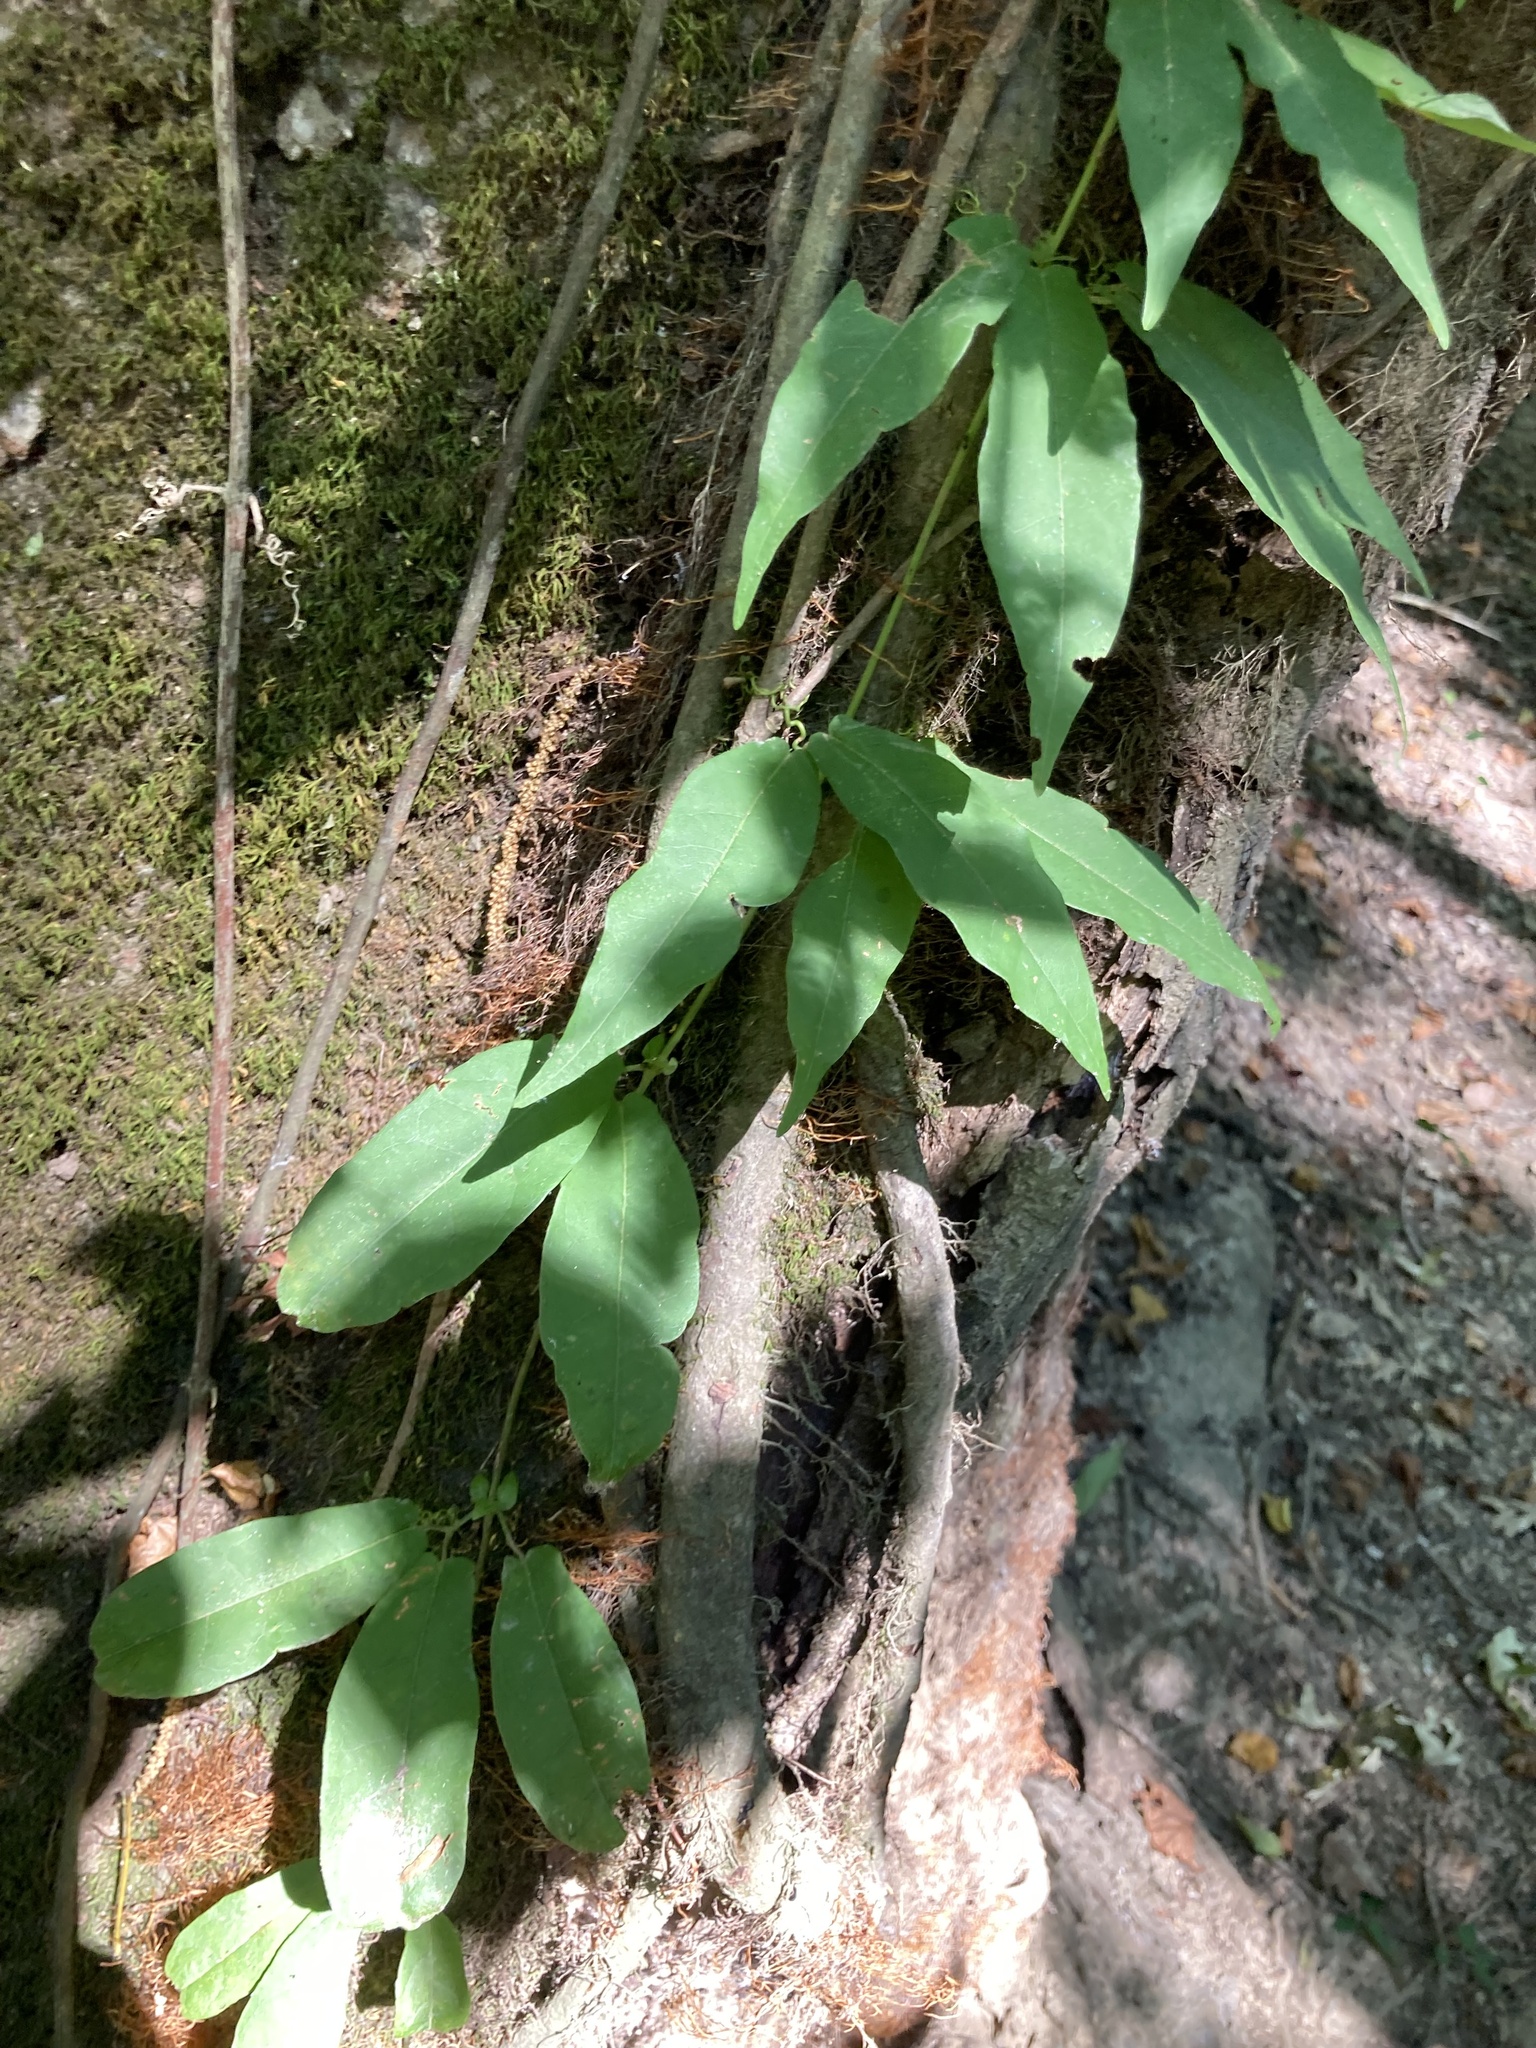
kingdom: Plantae
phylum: Tracheophyta
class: Magnoliopsida
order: Lamiales
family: Bignoniaceae
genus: Bignonia
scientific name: Bignonia capreolata
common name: Crossvine
